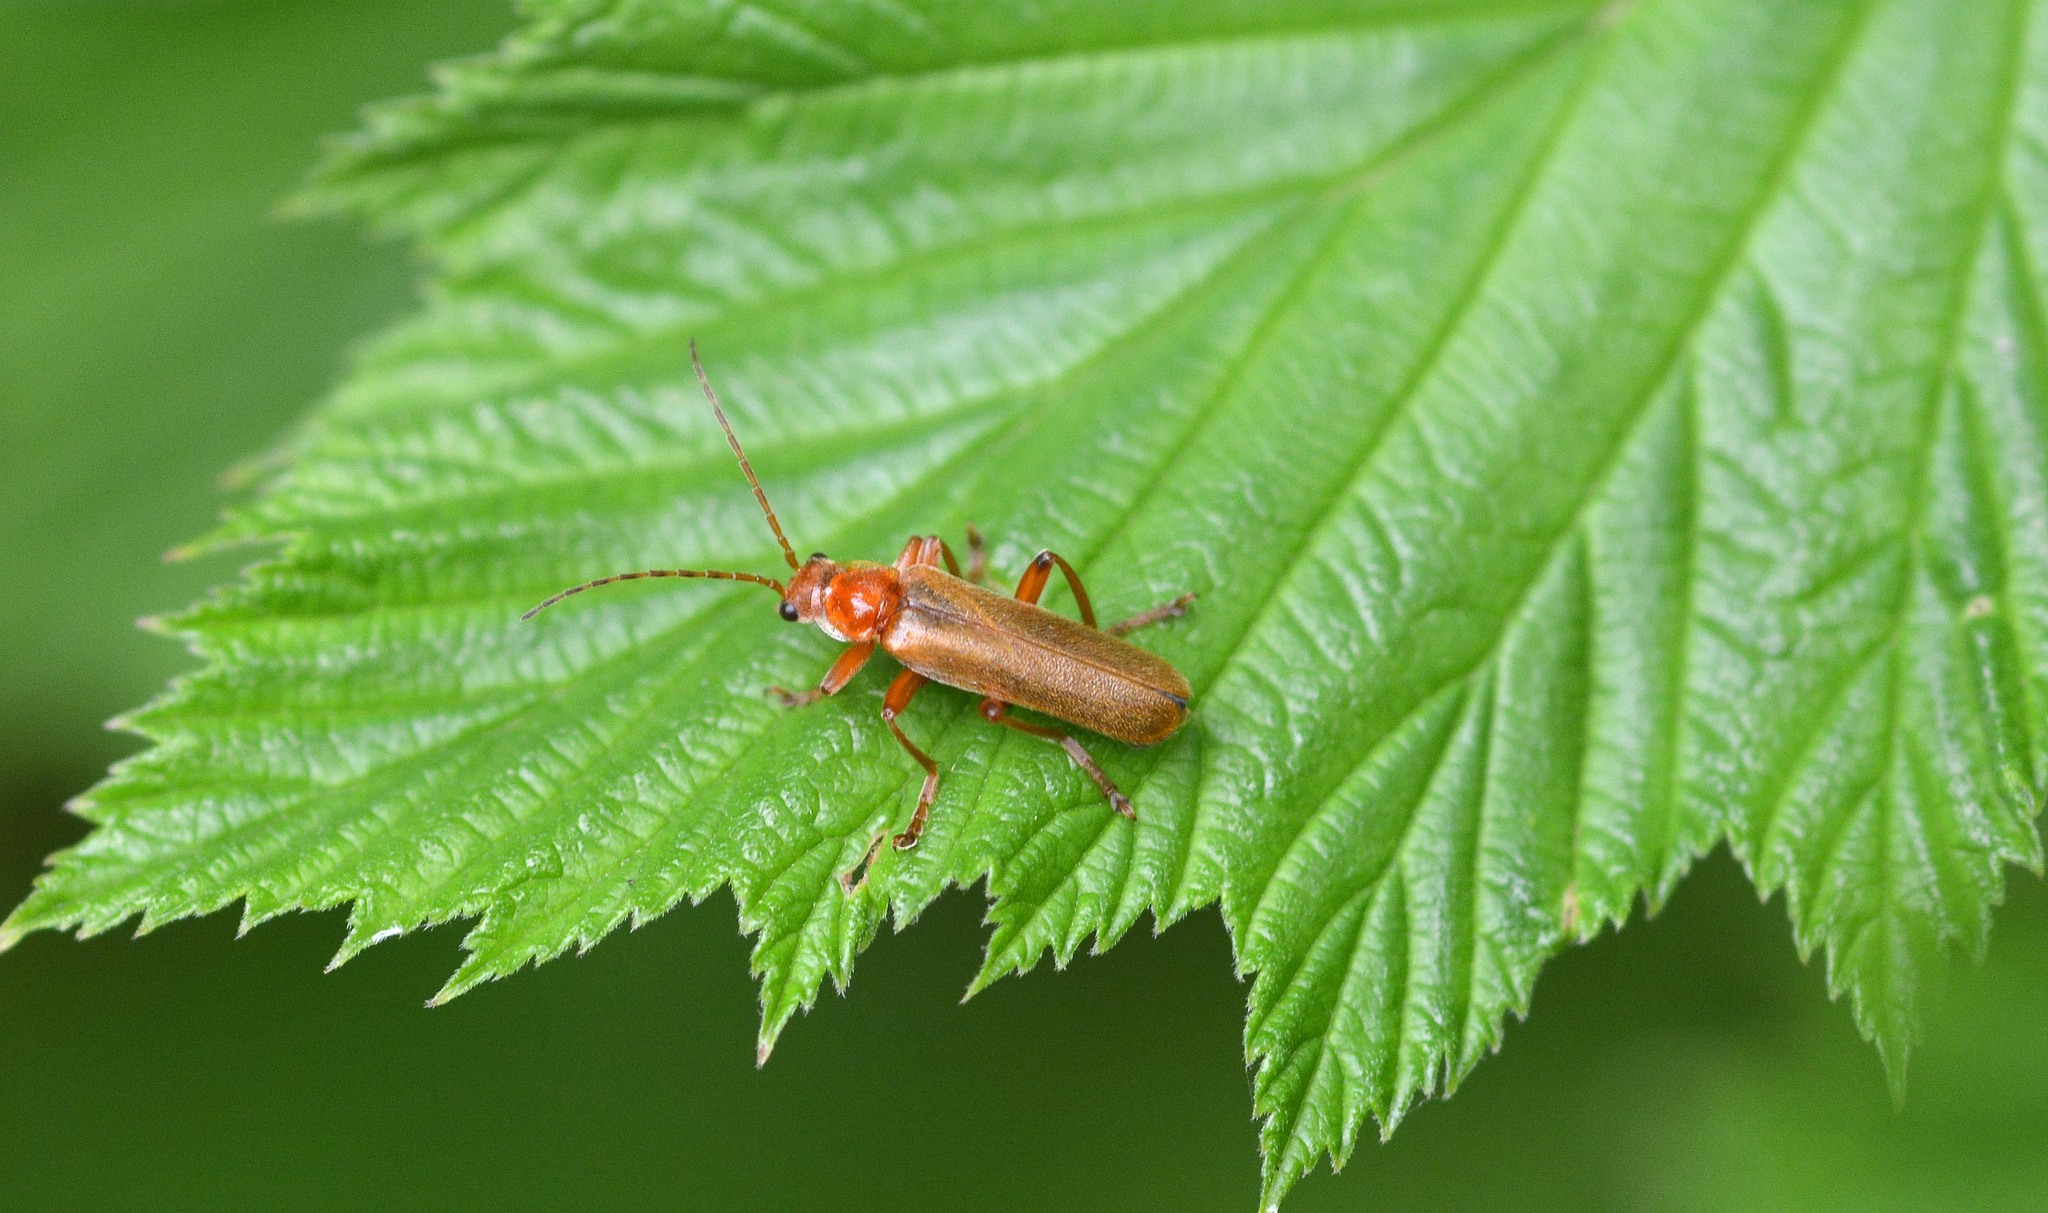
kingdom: Animalia
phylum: Arthropoda
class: Insecta
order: Coleoptera
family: Cantharidae
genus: Cantharis
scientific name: Cantharis pallida
